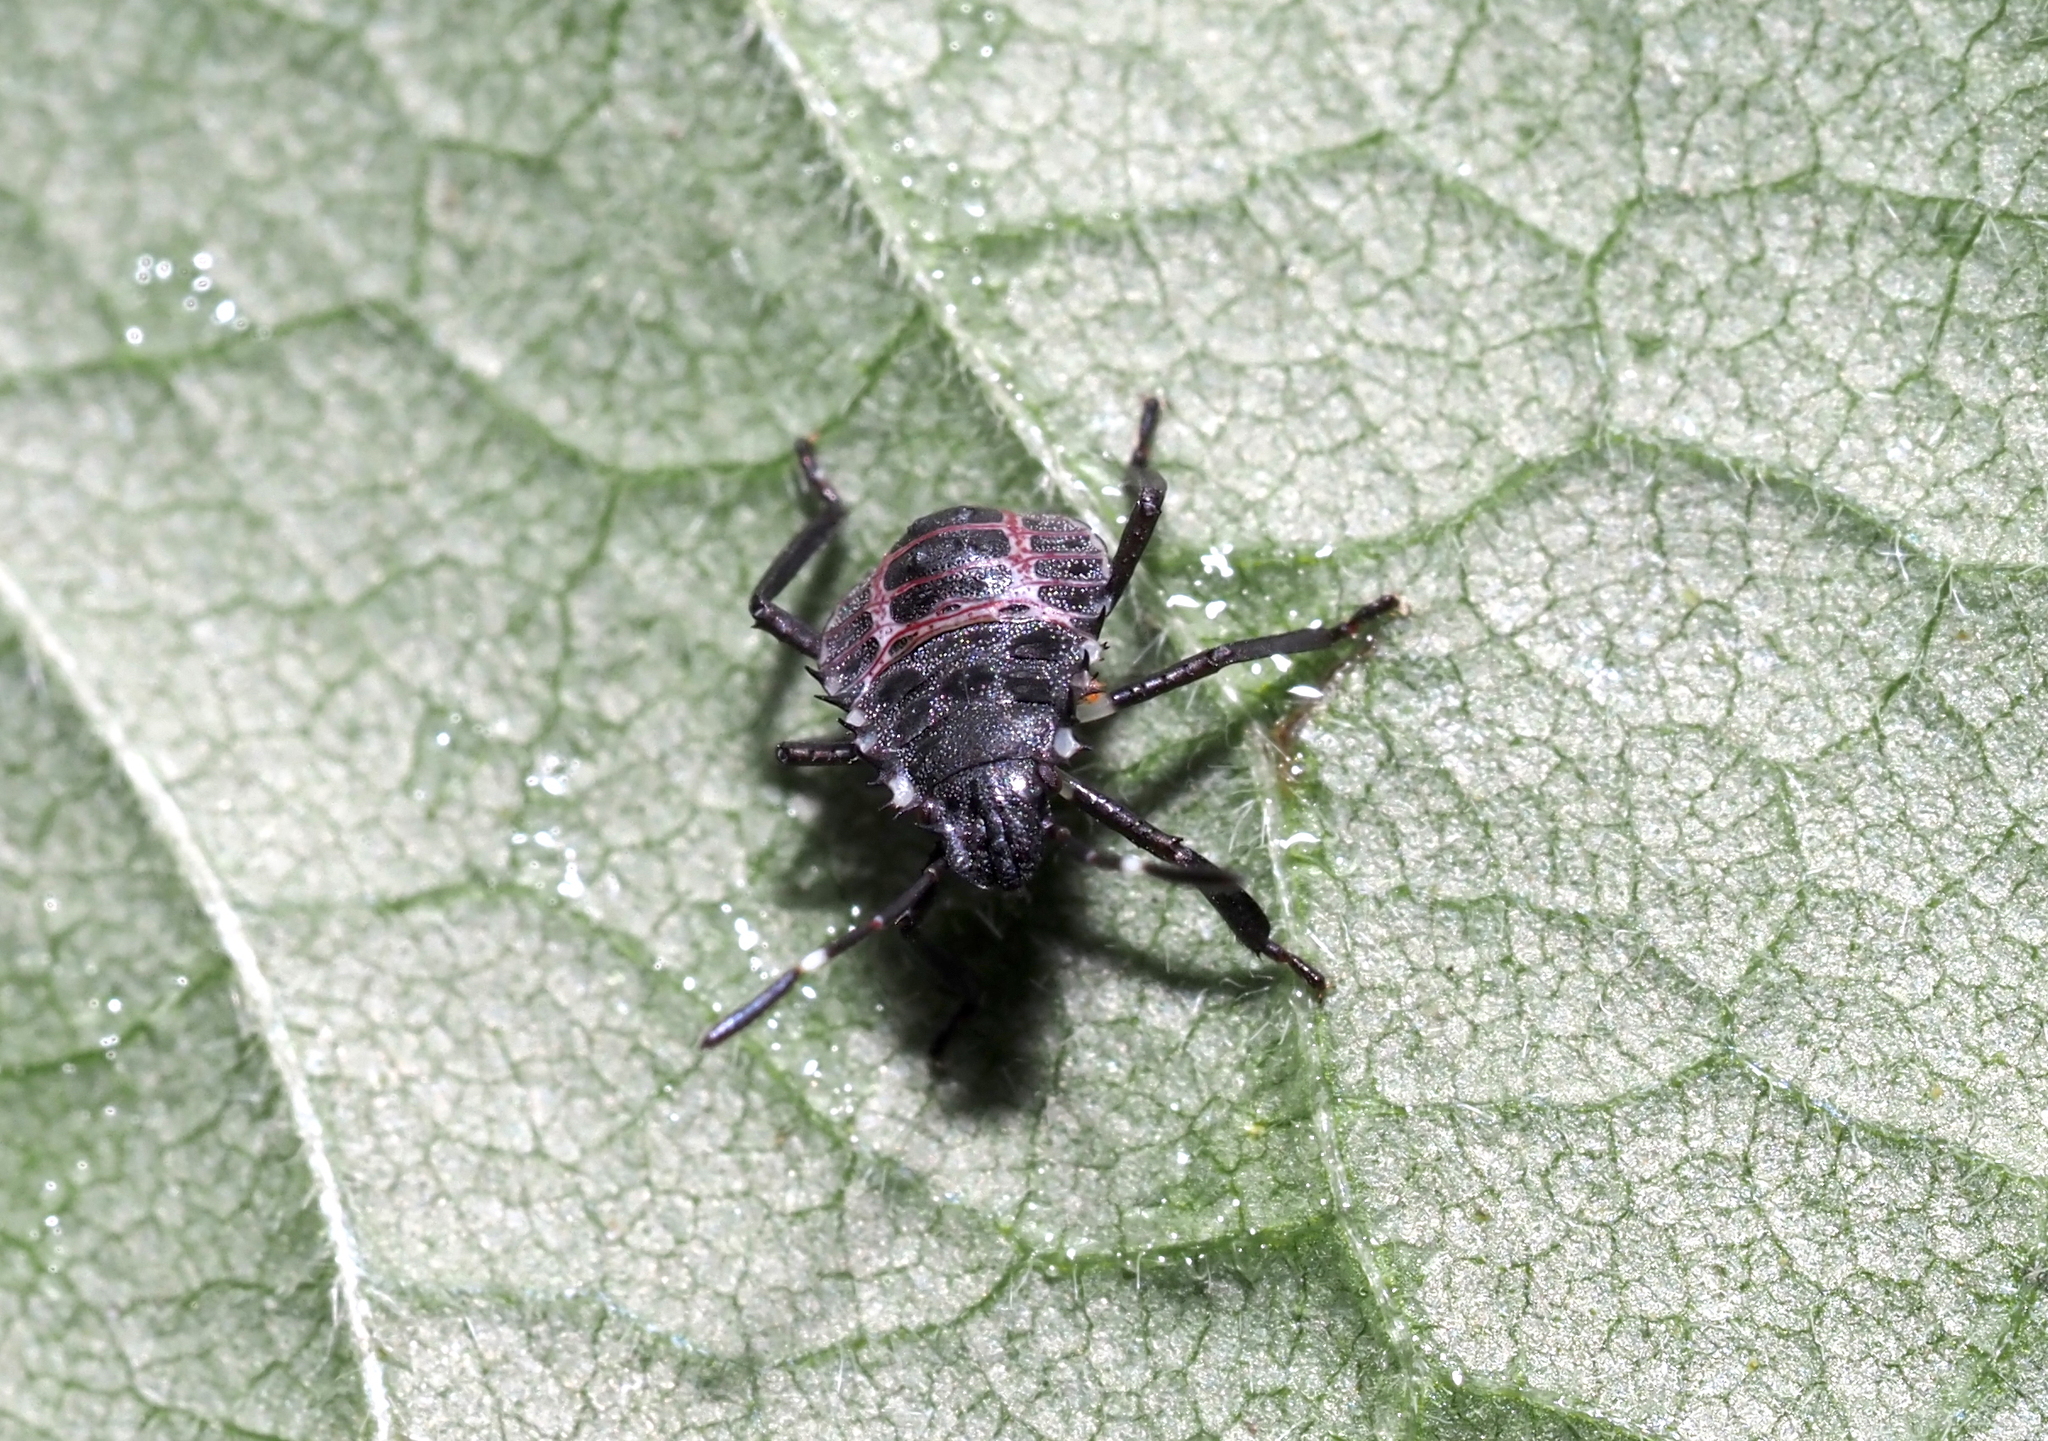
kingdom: Animalia
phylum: Arthropoda
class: Insecta
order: Hemiptera
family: Pentatomidae
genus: Halyomorpha
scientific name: Halyomorpha halys
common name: Brown marmorated stink bug
